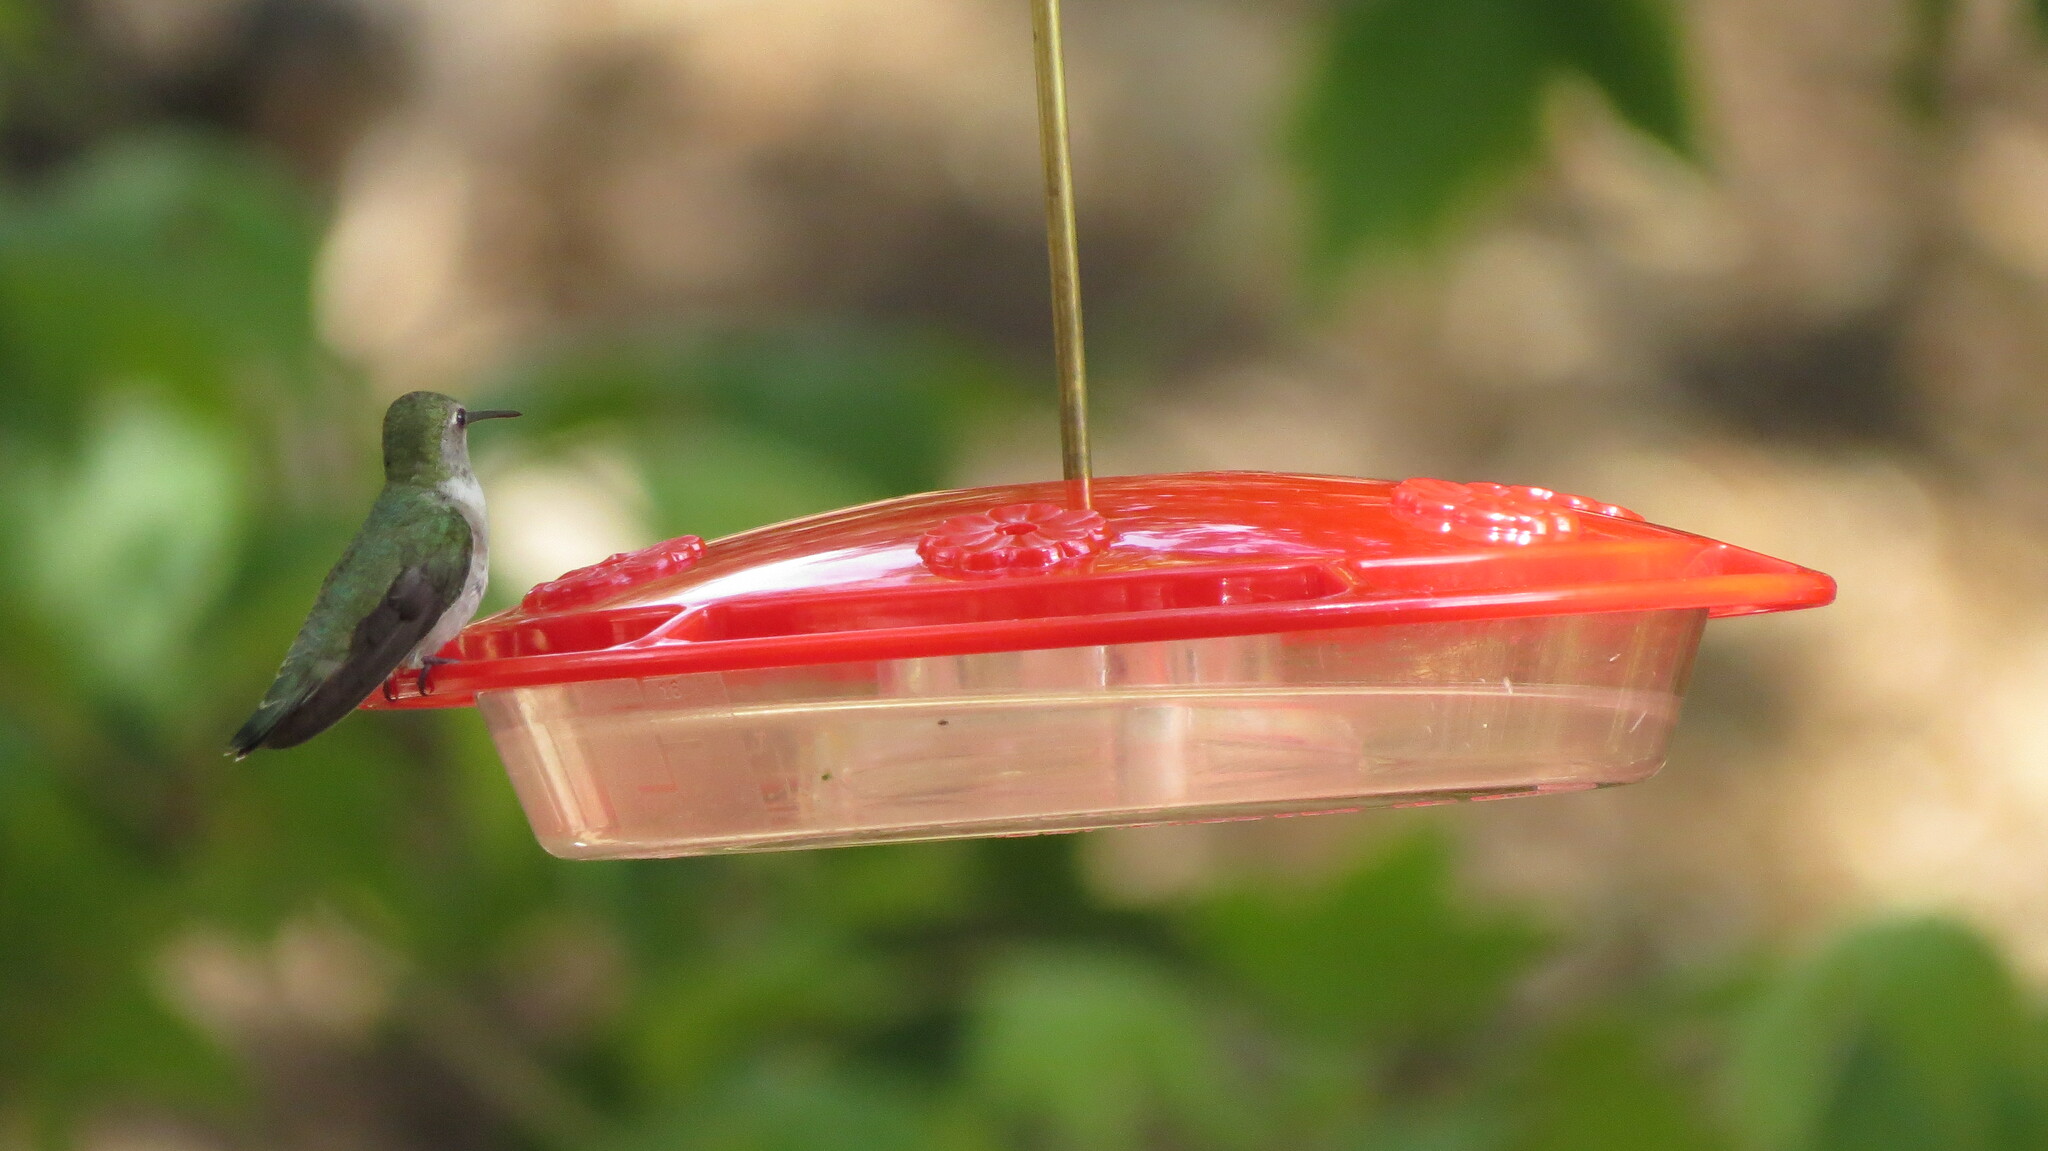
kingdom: Animalia
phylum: Chordata
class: Aves
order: Apodiformes
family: Trochilidae
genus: Archilochus
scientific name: Archilochus alexandri
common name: Black-chinned hummingbird
